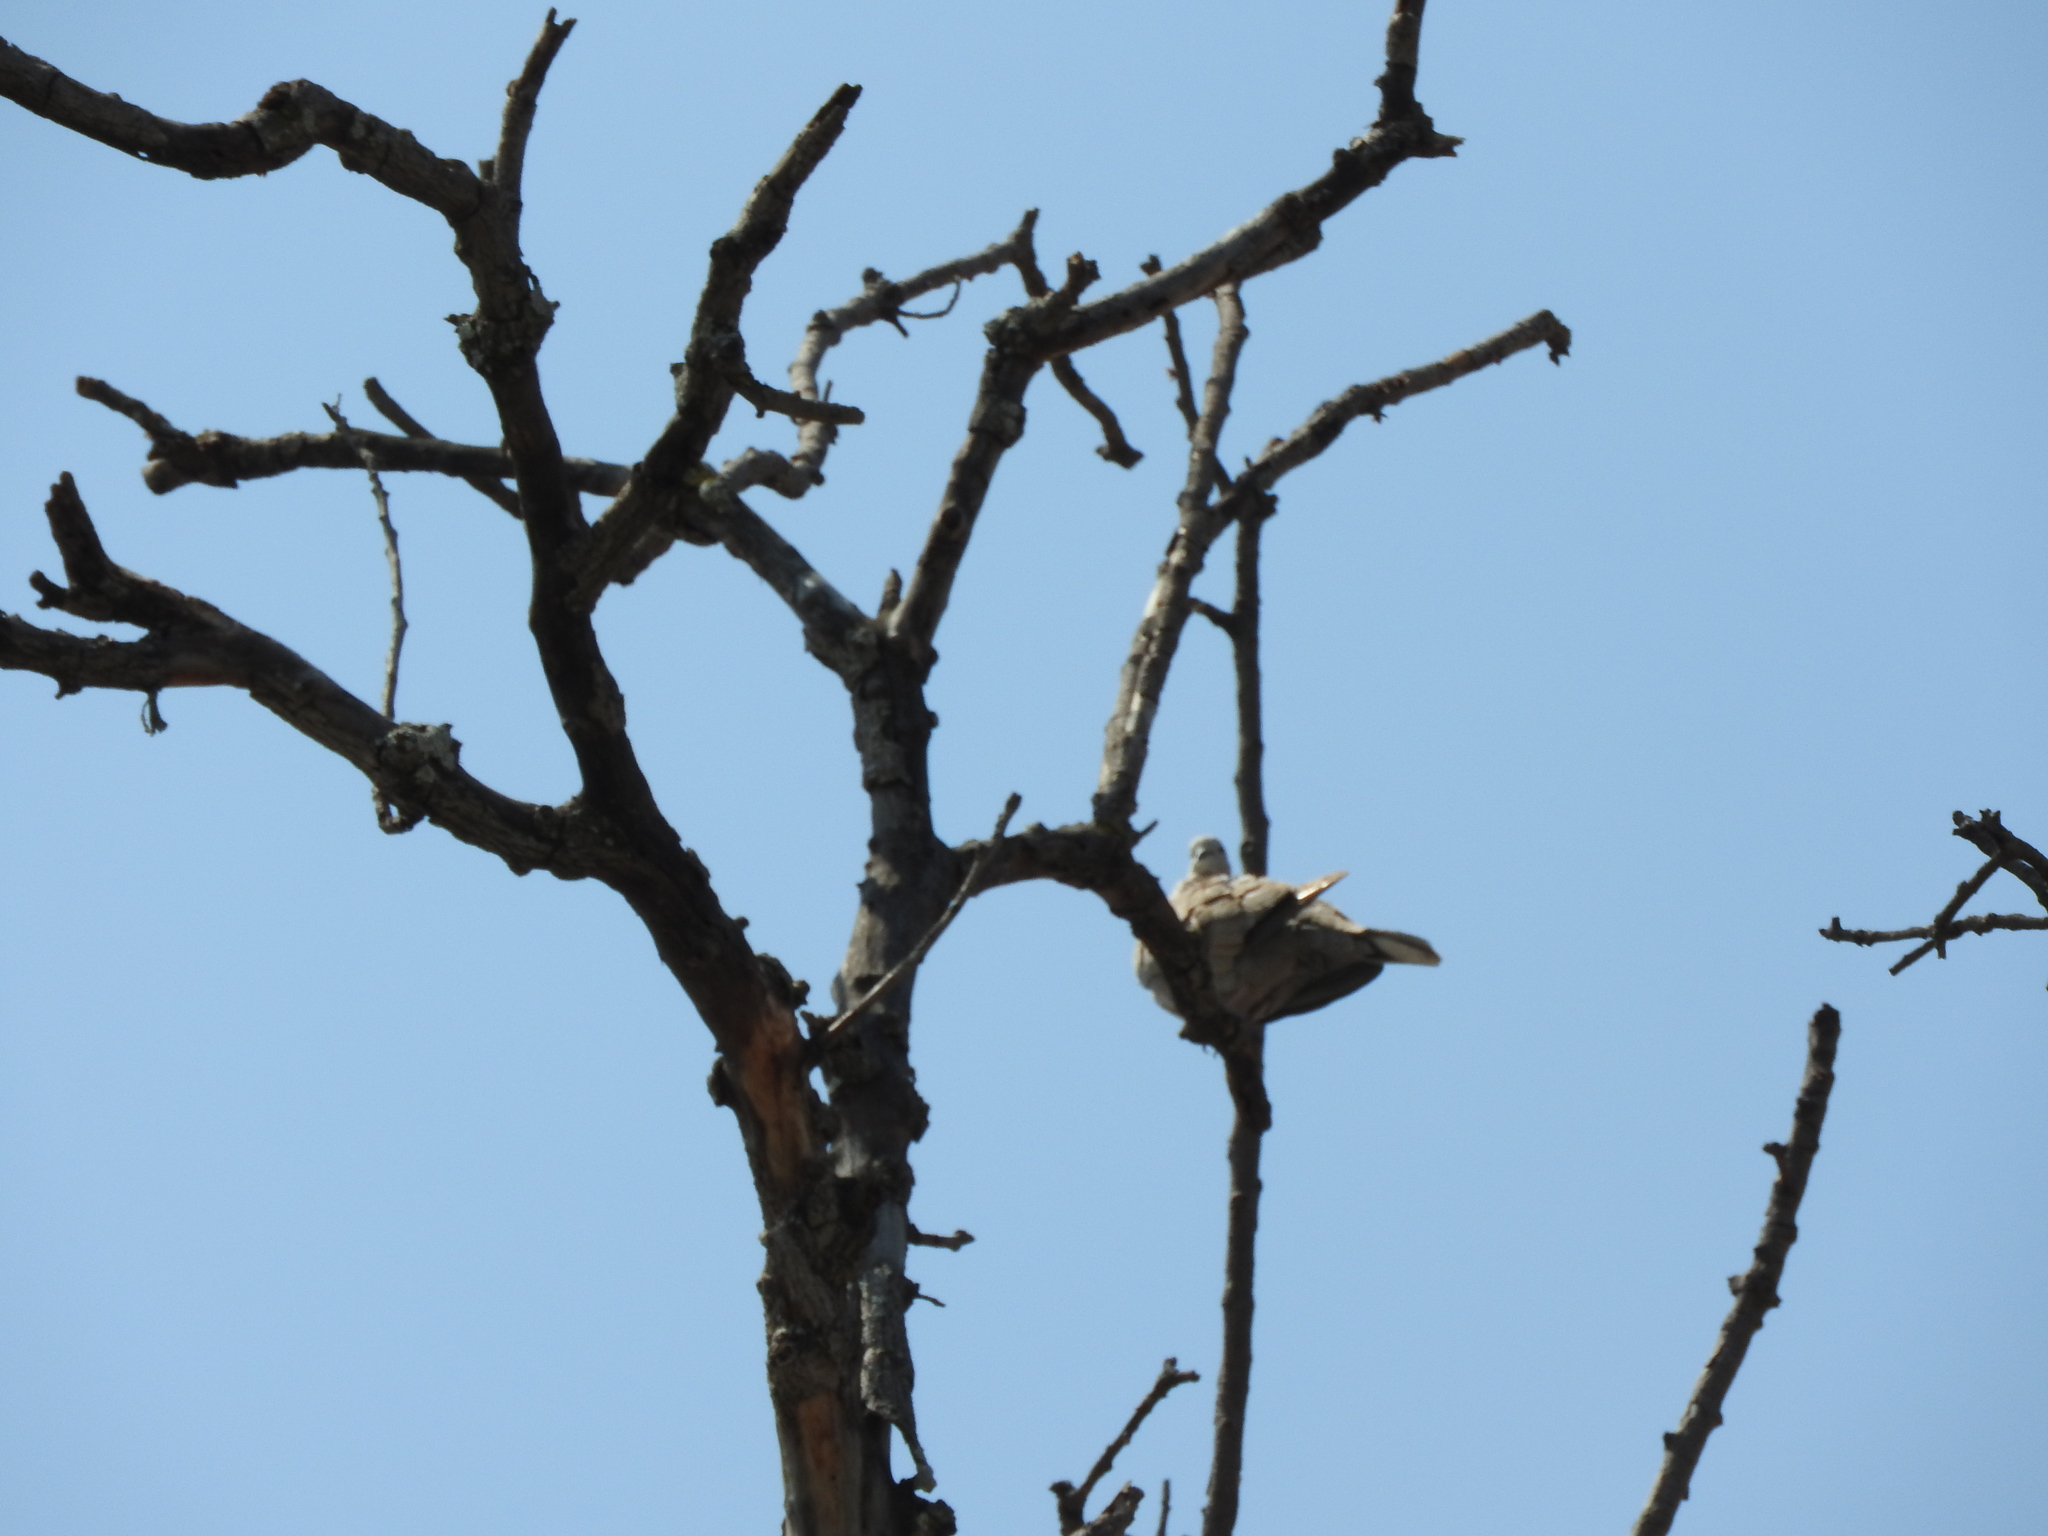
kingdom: Animalia
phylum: Chordata
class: Aves
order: Columbiformes
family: Columbidae
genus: Streptopelia
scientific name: Streptopelia decaocto
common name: Eurasian collared dove
